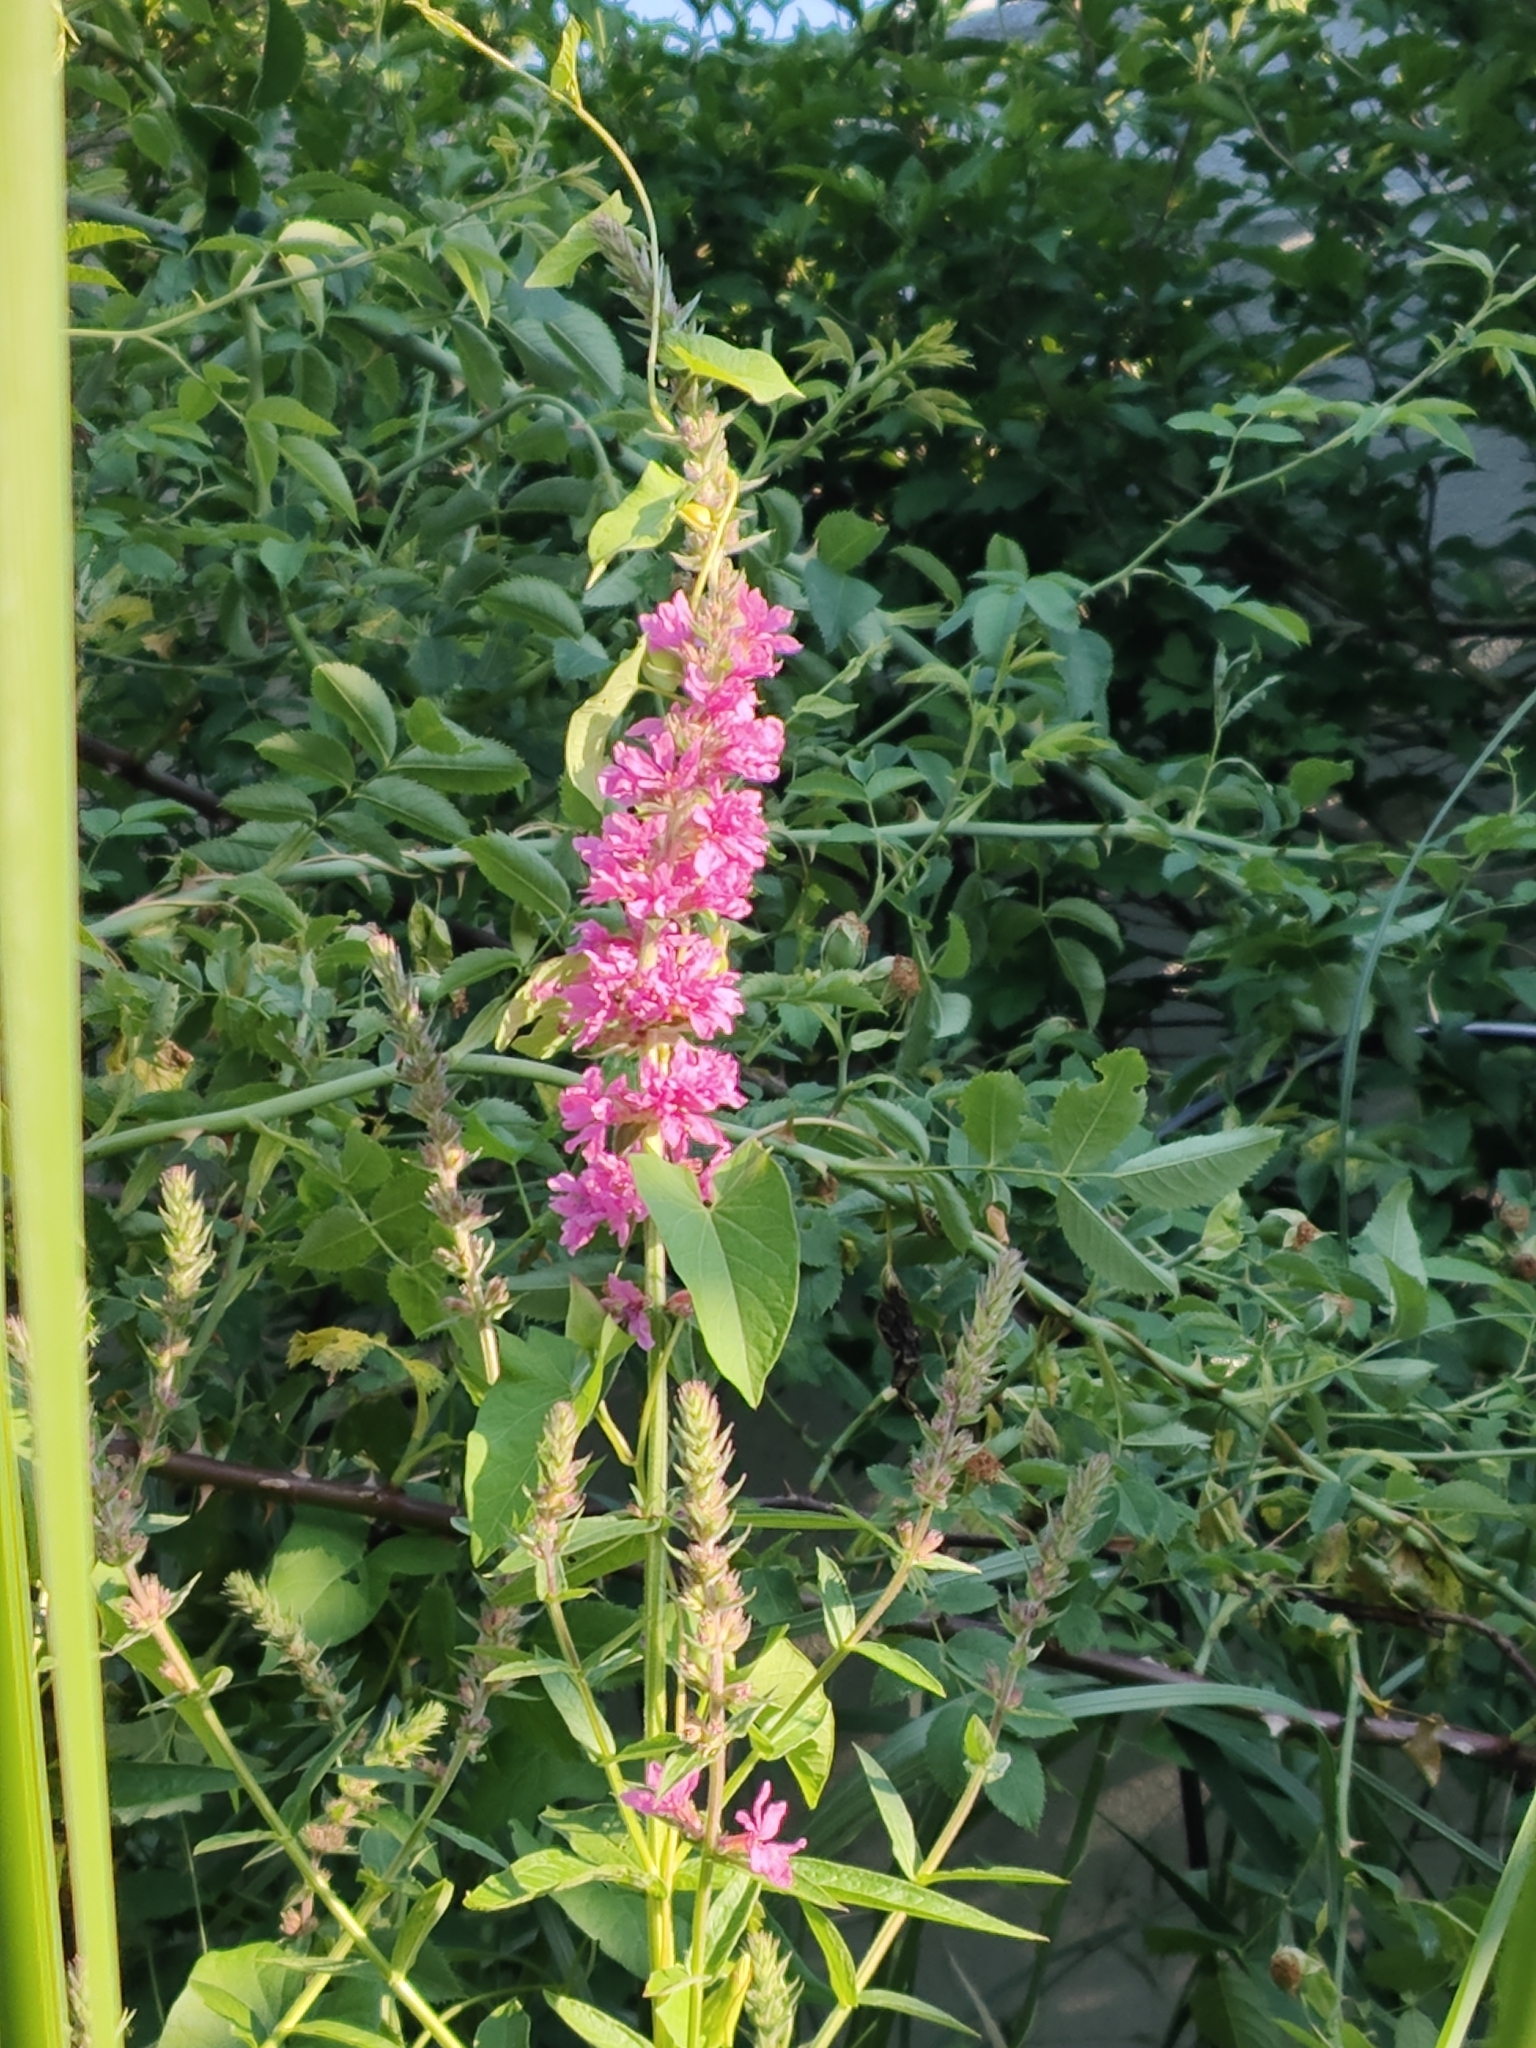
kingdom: Plantae
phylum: Tracheophyta
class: Magnoliopsida
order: Myrtales
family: Lythraceae
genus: Lythrum
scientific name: Lythrum salicaria
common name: Purple loosestrife
